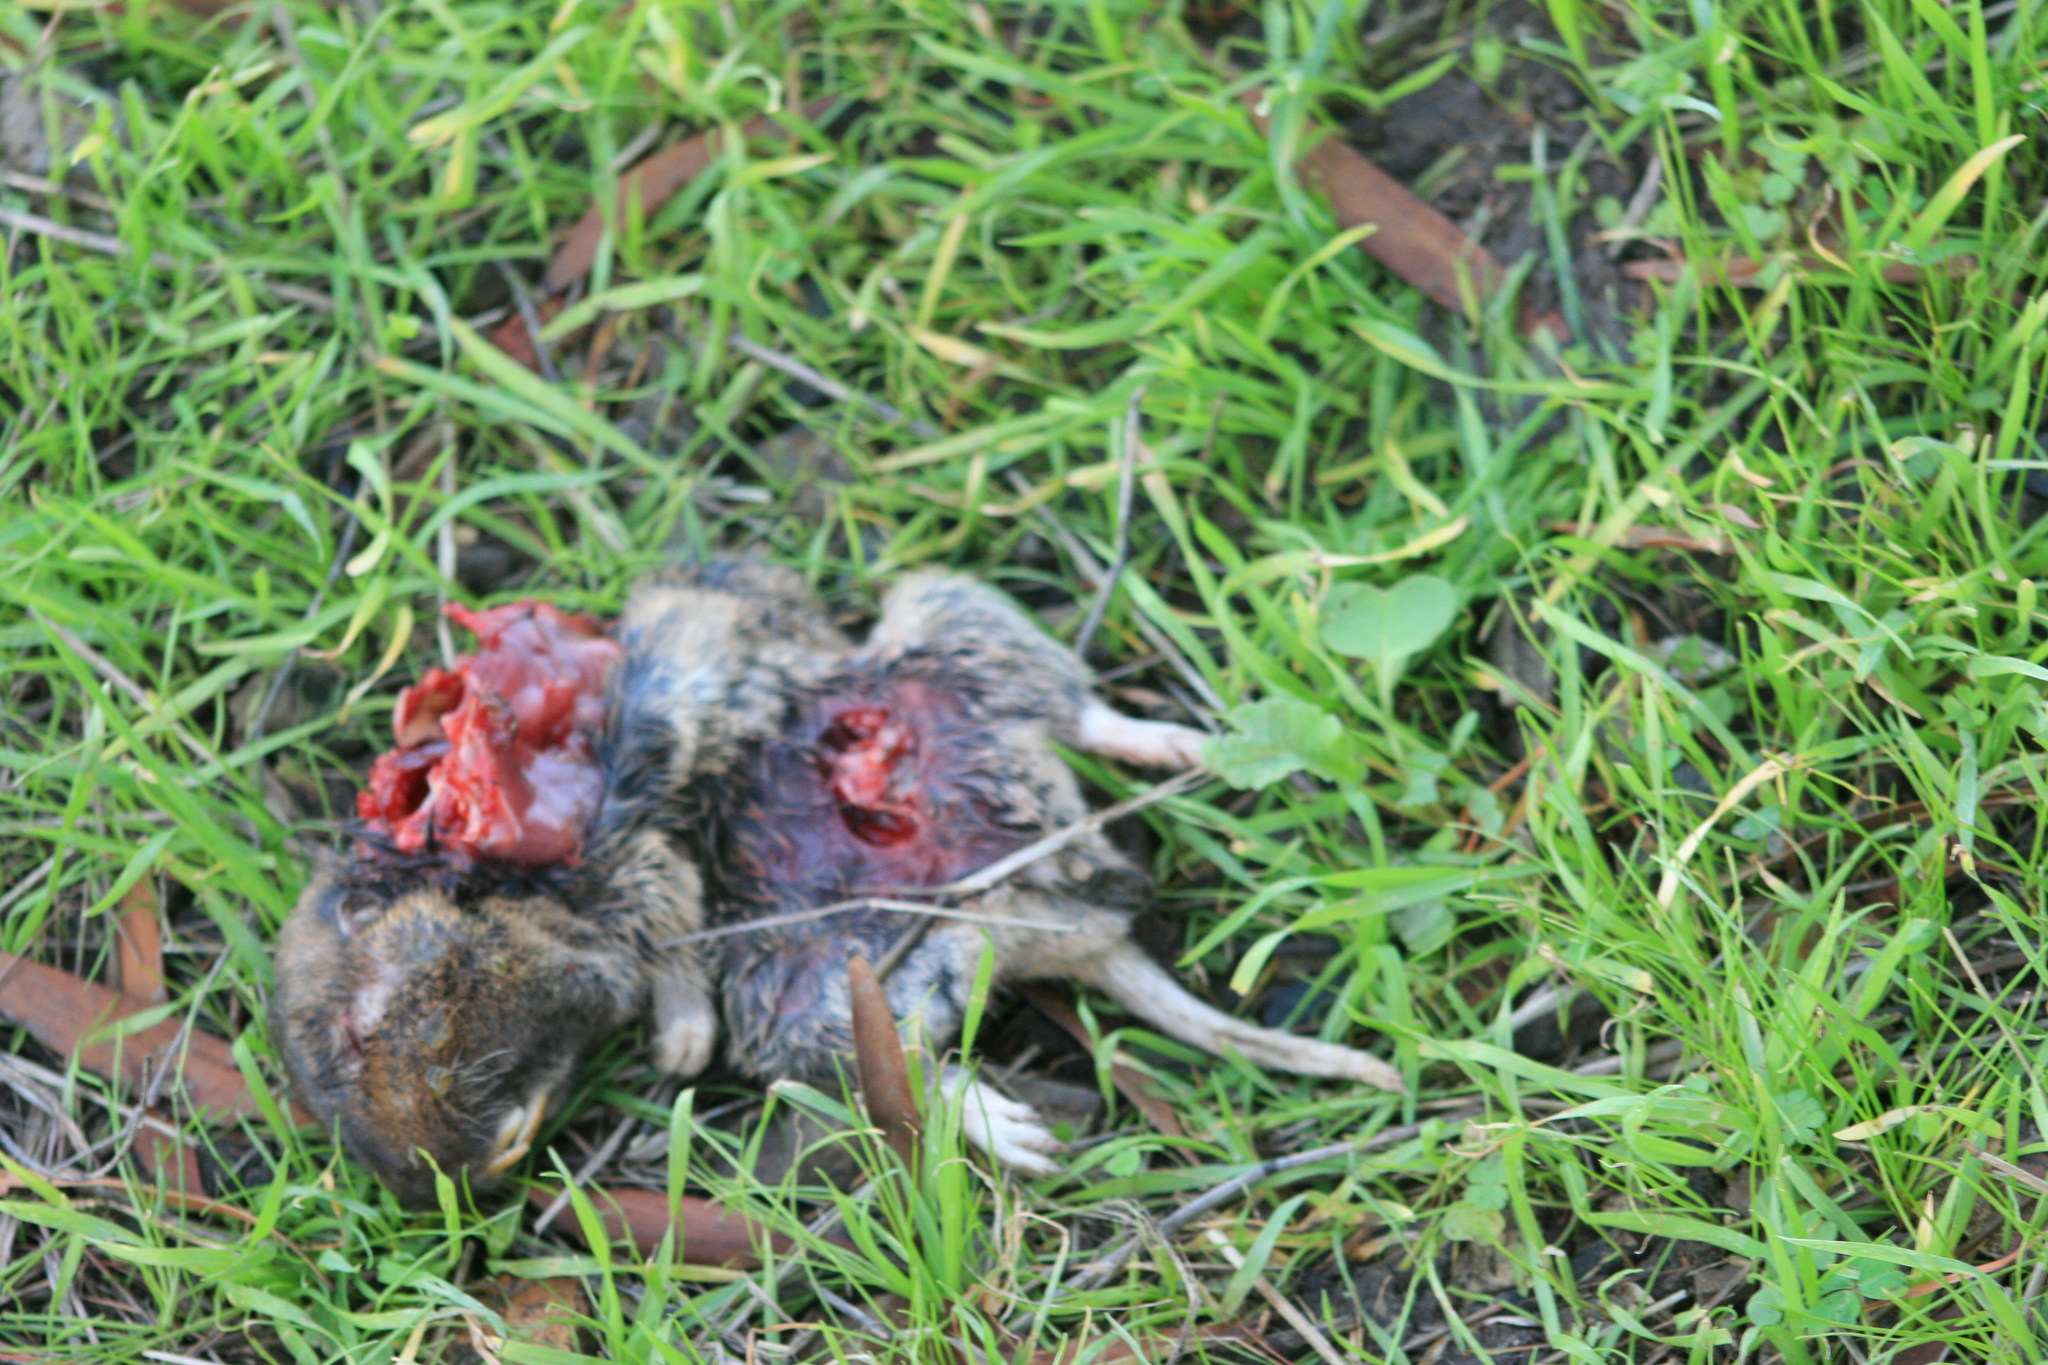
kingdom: Animalia
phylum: Chordata
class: Mammalia
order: Rodentia
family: Geomyidae
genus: Thomomys
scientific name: Thomomys bottae
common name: Botta's pocket gopher
